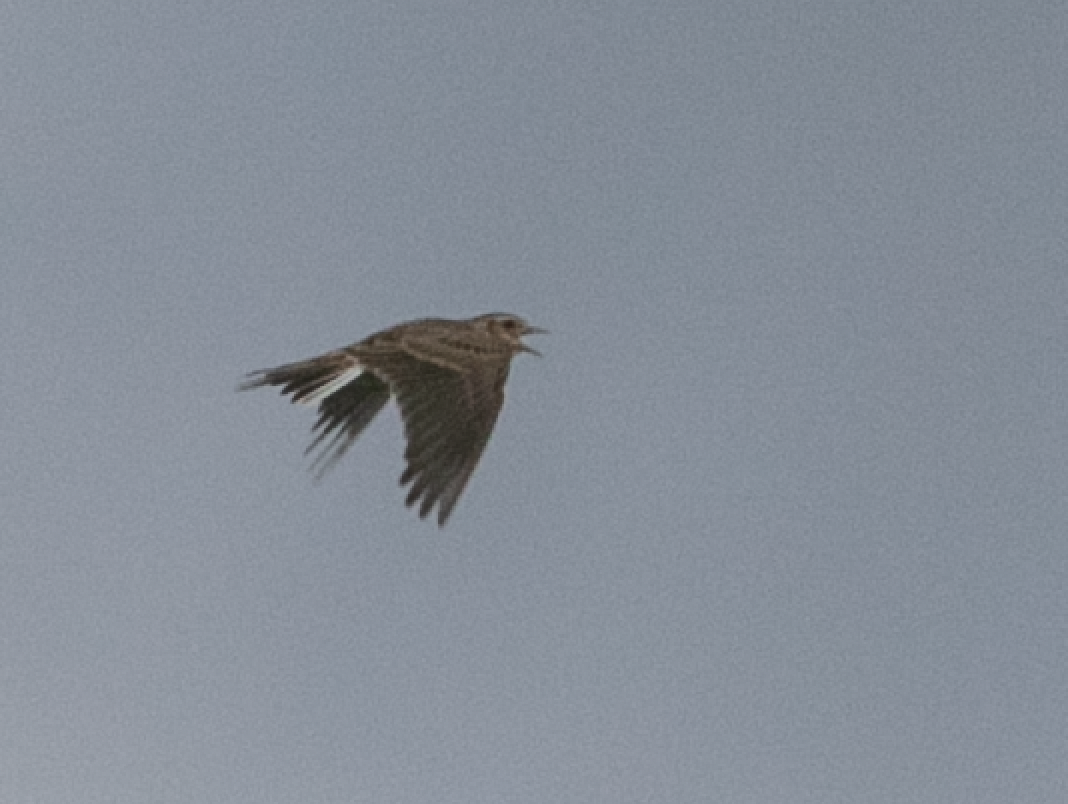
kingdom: Animalia
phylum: Chordata
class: Aves
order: Passeriformes
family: Alaudidae
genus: Alauda
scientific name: Alauda arvensis
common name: Eurasian skylark
